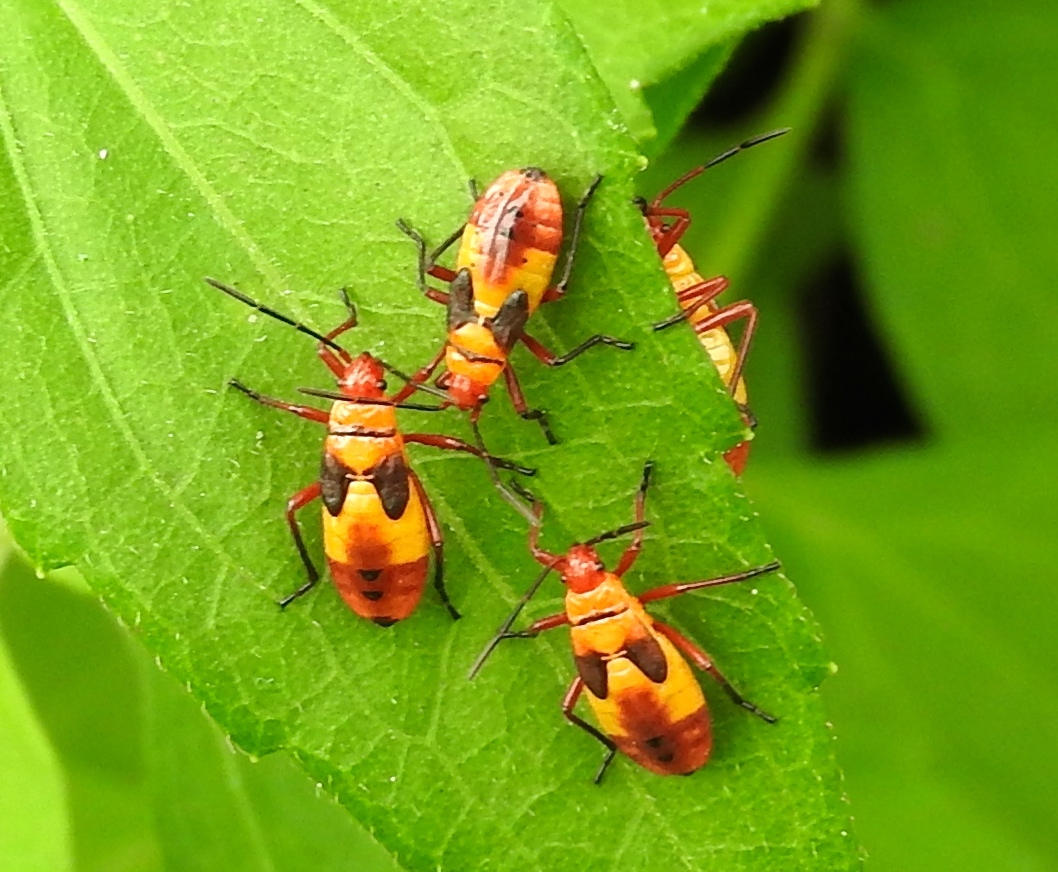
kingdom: Animalia
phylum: Arthropoda
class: Insecta
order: Hemiptera
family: Lygaeidae
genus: Oncopeltus
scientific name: Oncopeltus sexmaculatus
